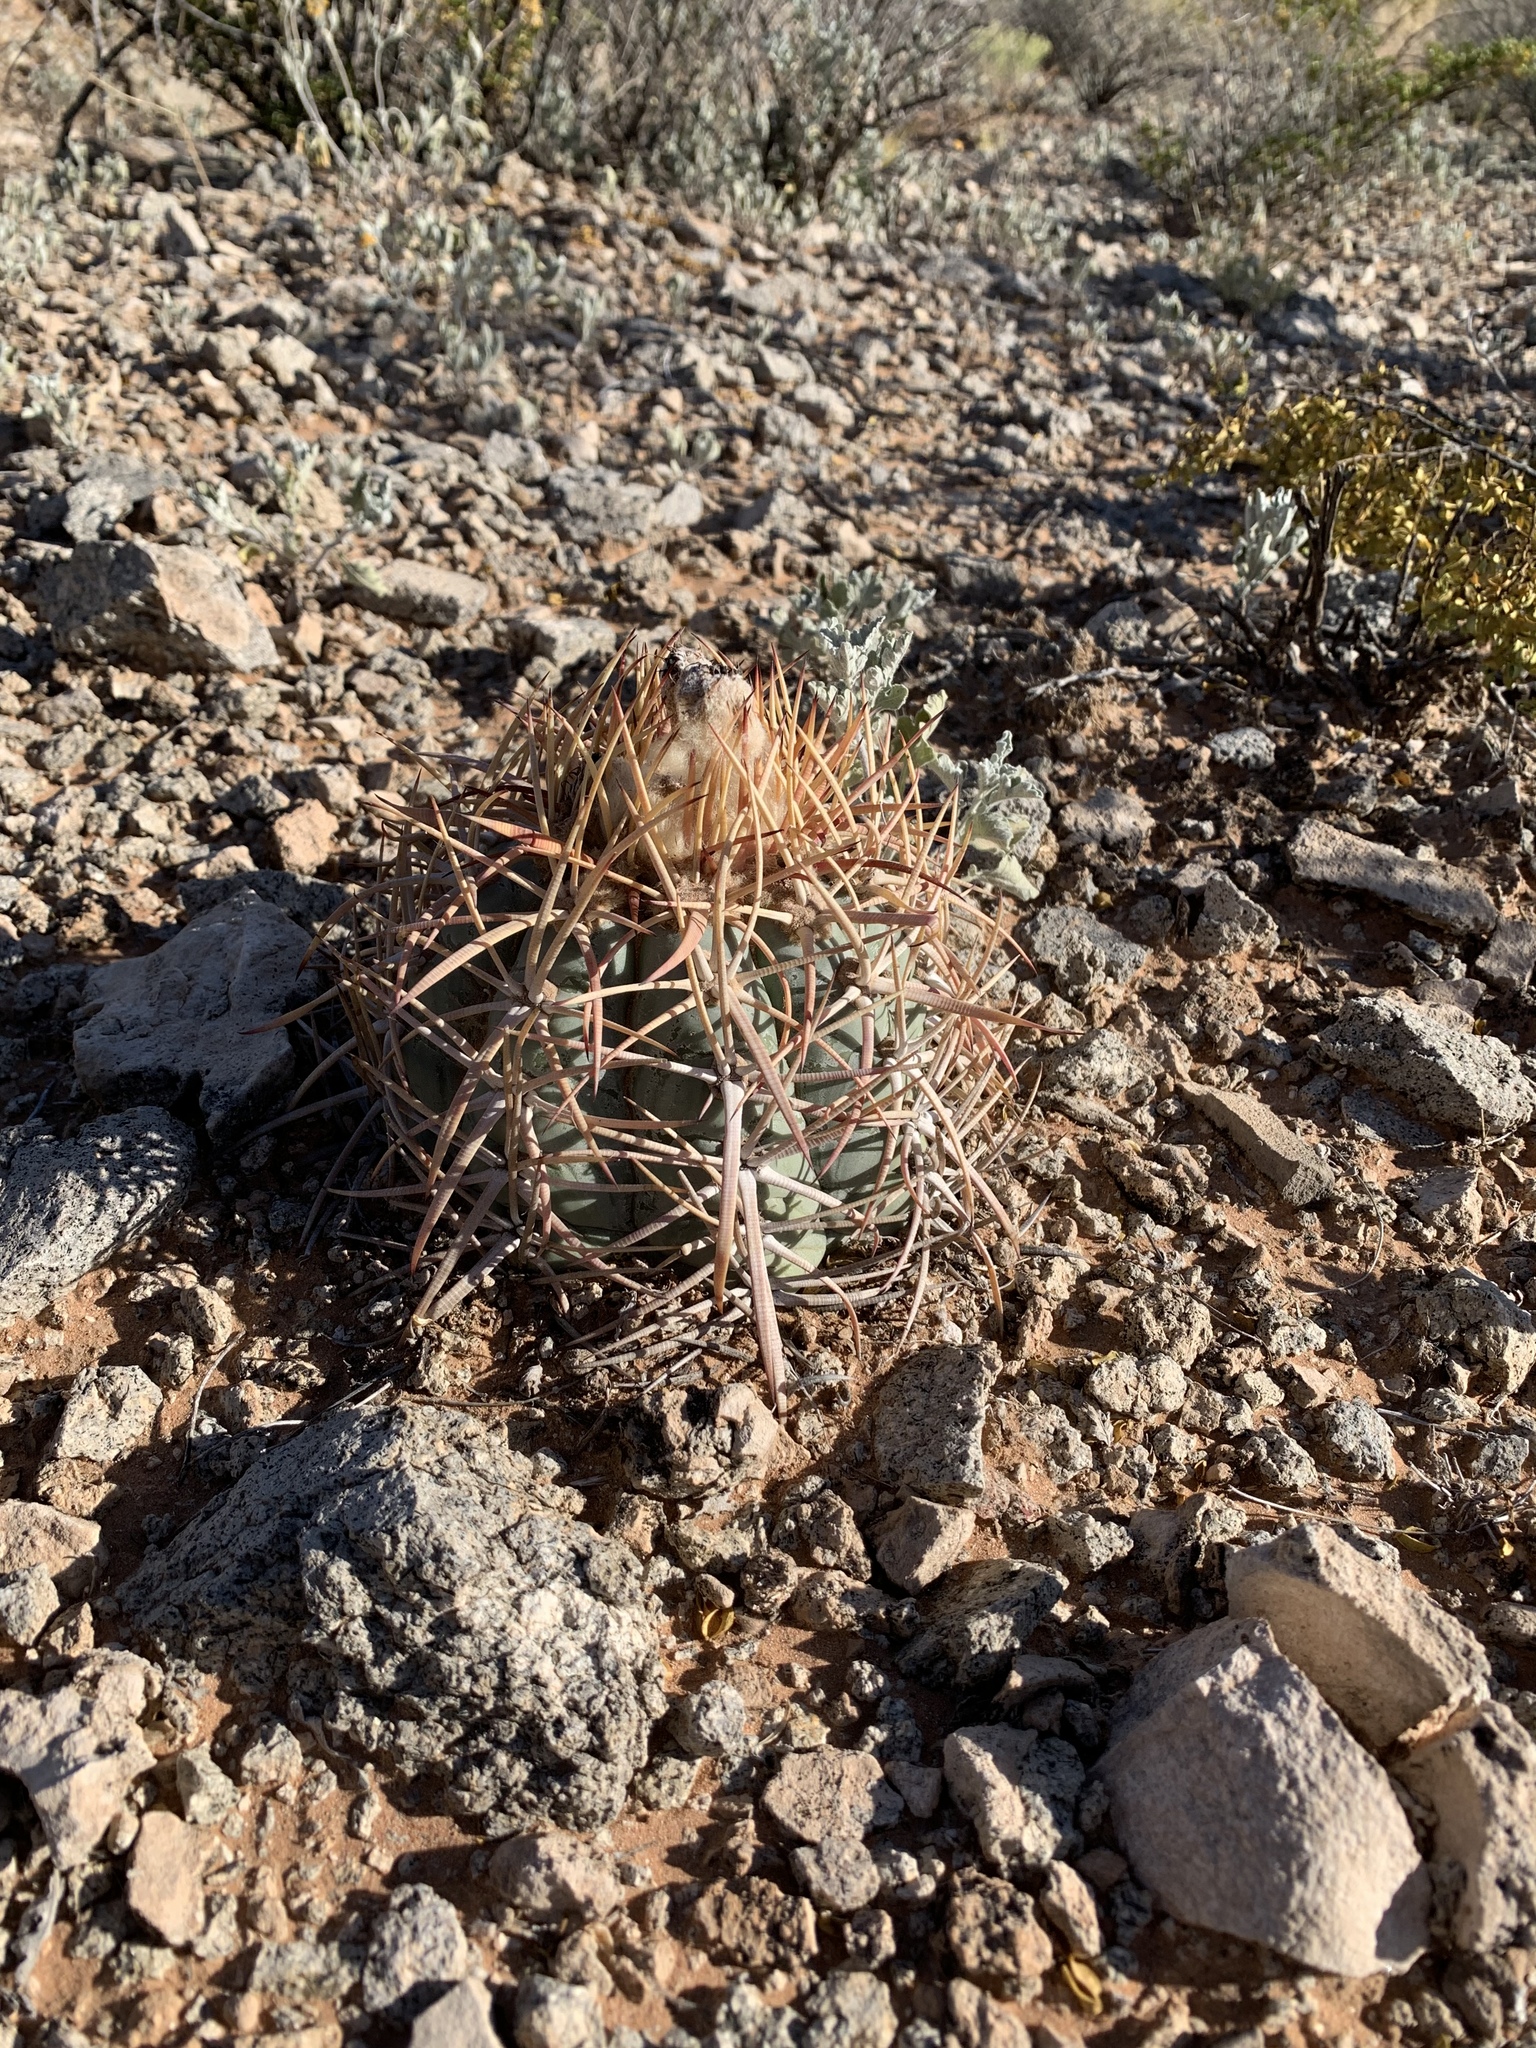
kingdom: Plantae
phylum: Tracheophyta
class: Magnoliopsida
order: Caryophyllales
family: Cactaceae
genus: Echinocactus
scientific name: Echinocactus horizonthalonius
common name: Devilshead
